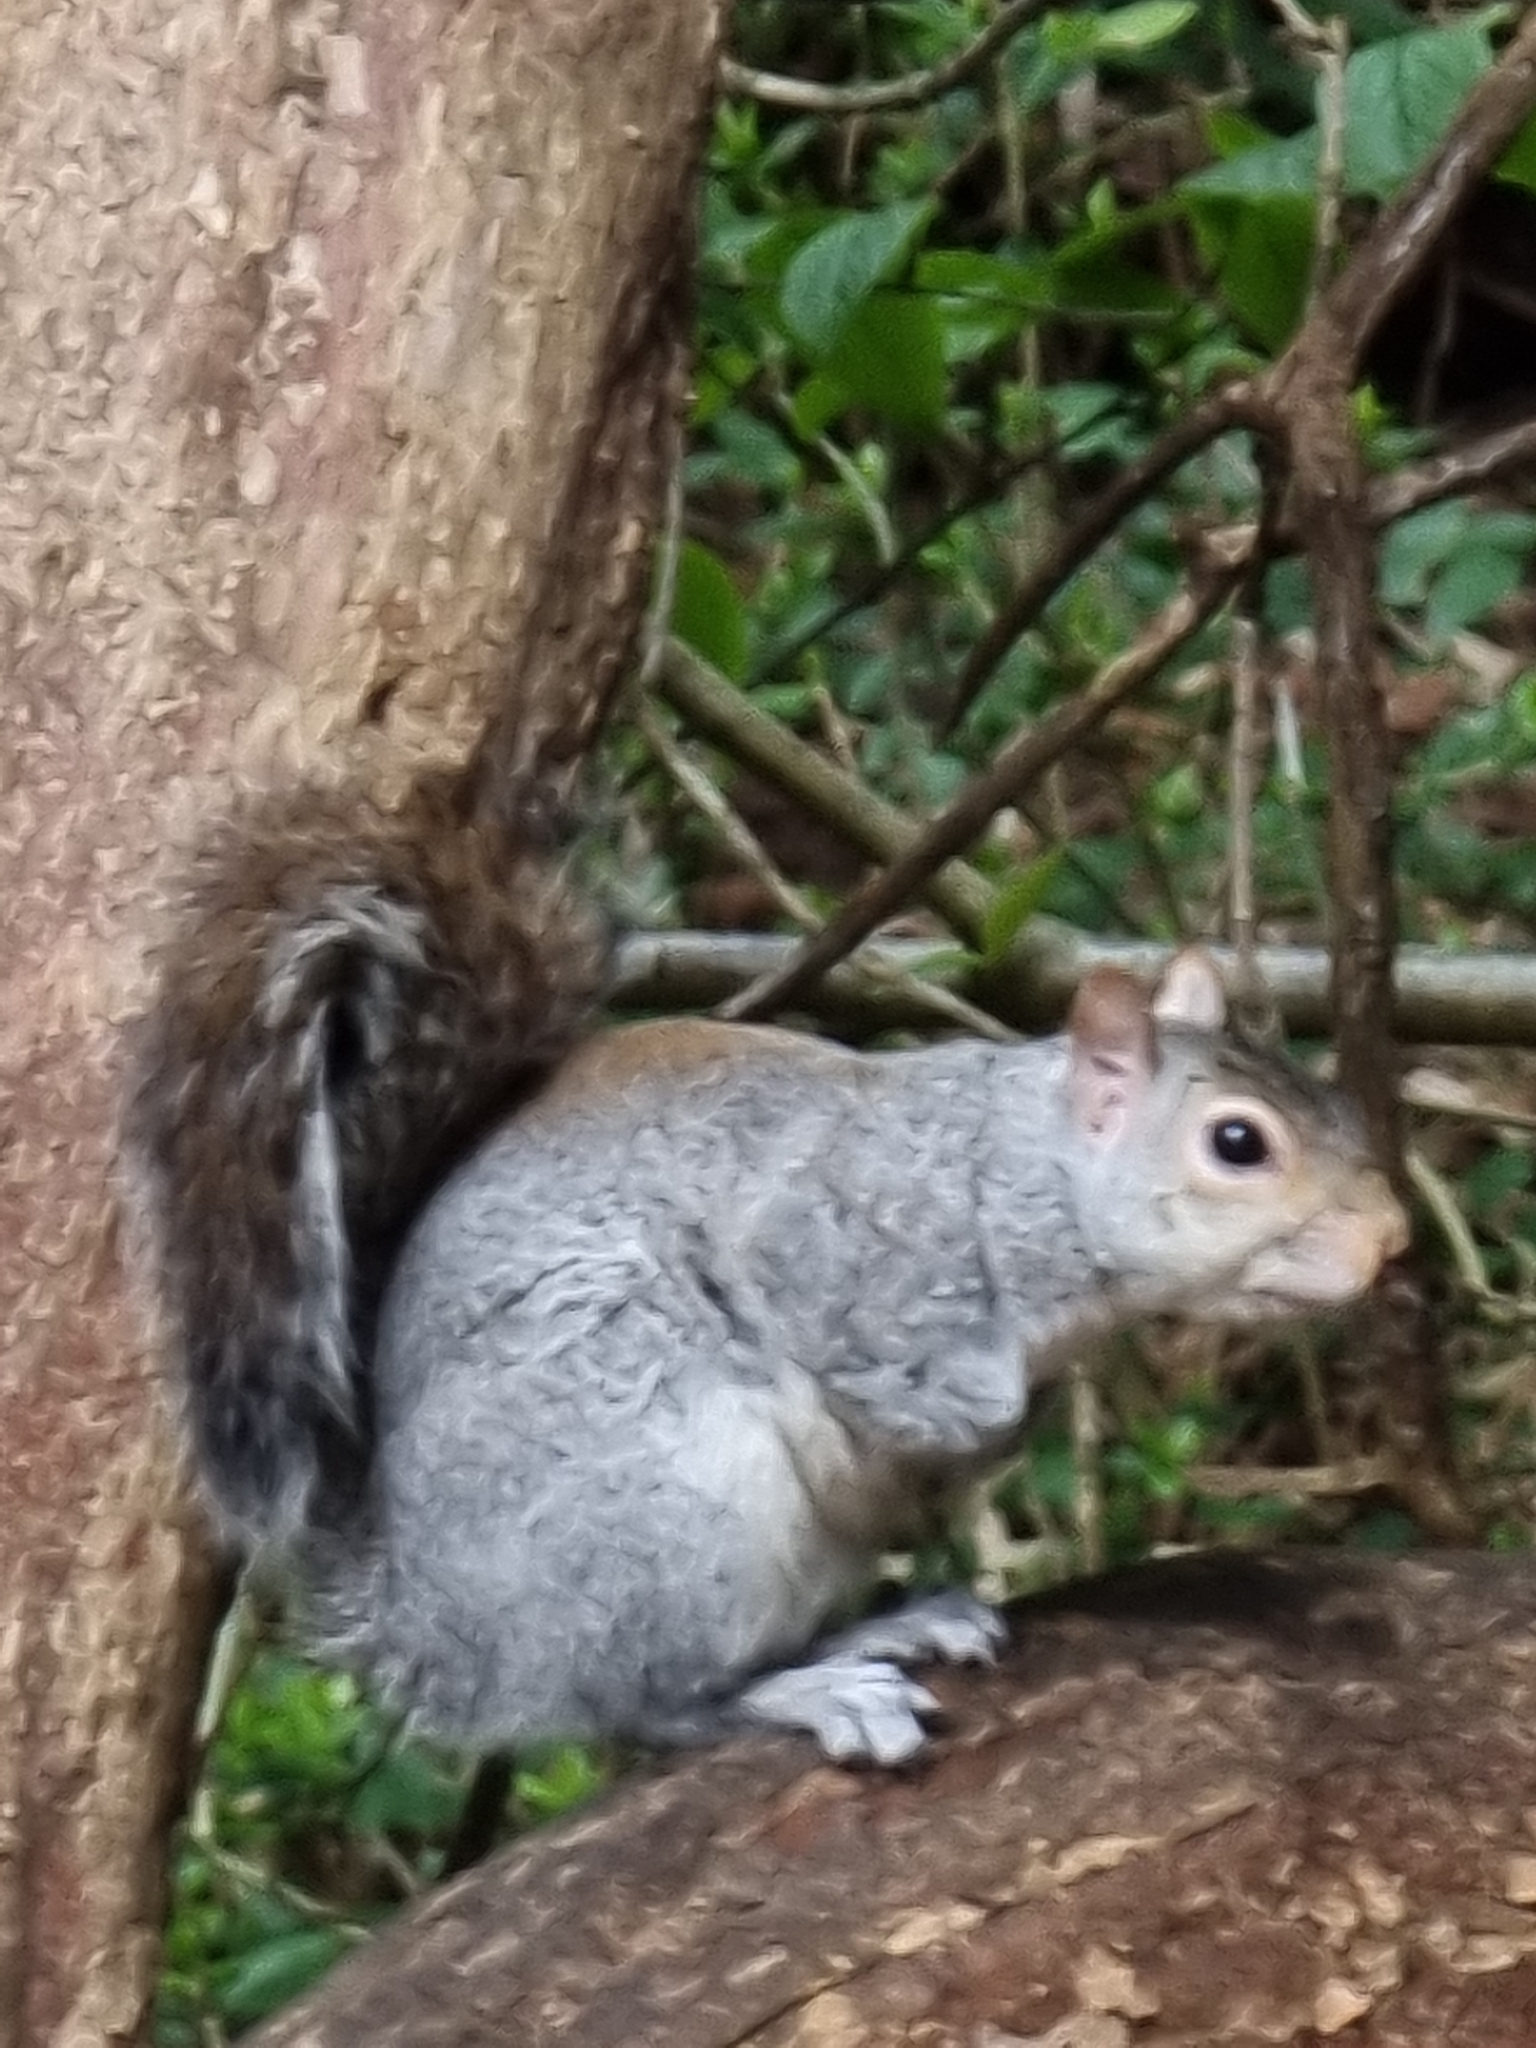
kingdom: Animalia
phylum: Chordata
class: Mammalia
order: Rodentia
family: Sciuridae
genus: Sciurus
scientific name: Sciurus carolinensis
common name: Eastern gray squirrel
